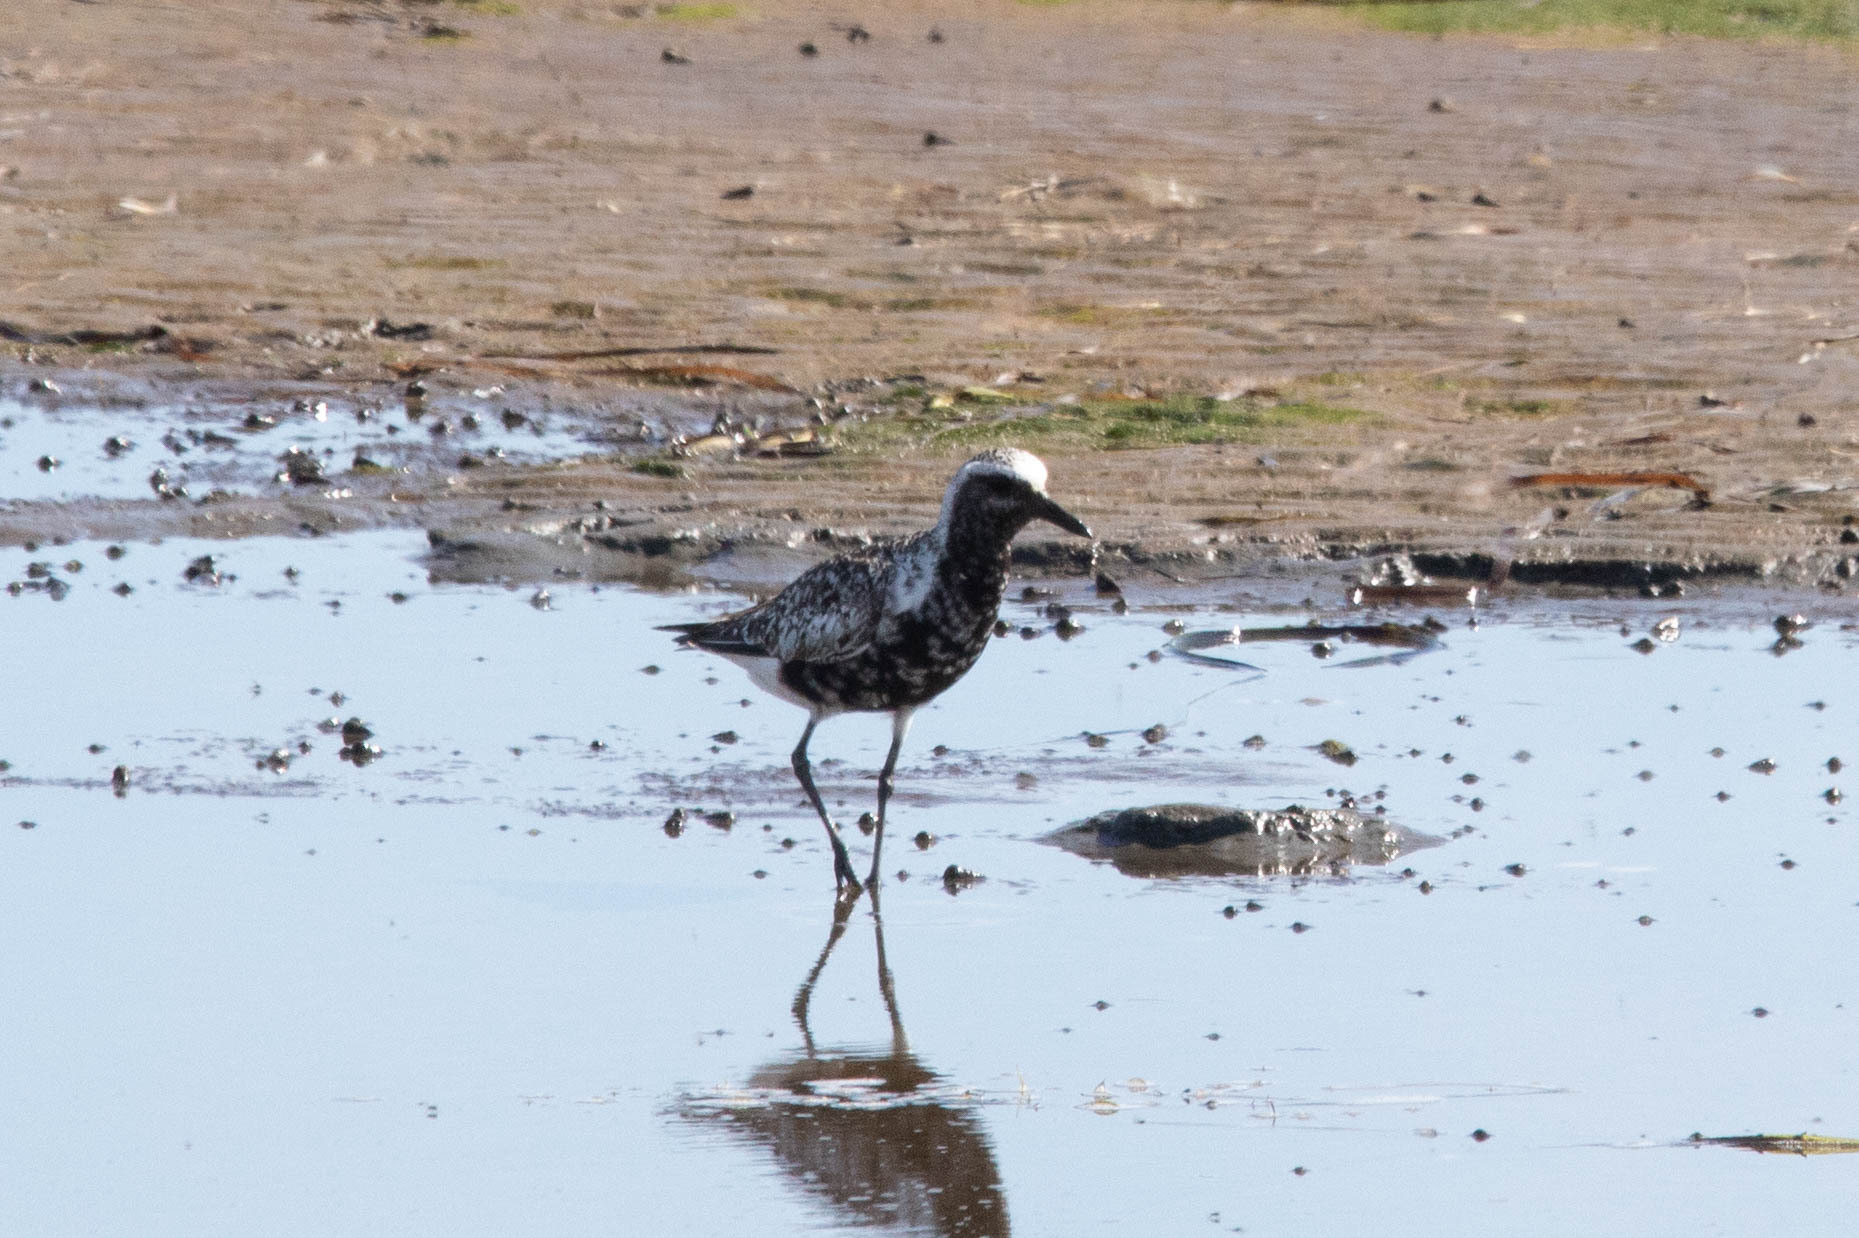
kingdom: Animalia
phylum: Chordata
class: Aves
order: Charadriiformes
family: Charadriidae
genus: Pluvialis
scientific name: Pluvialis squatarola
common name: Grey plover
